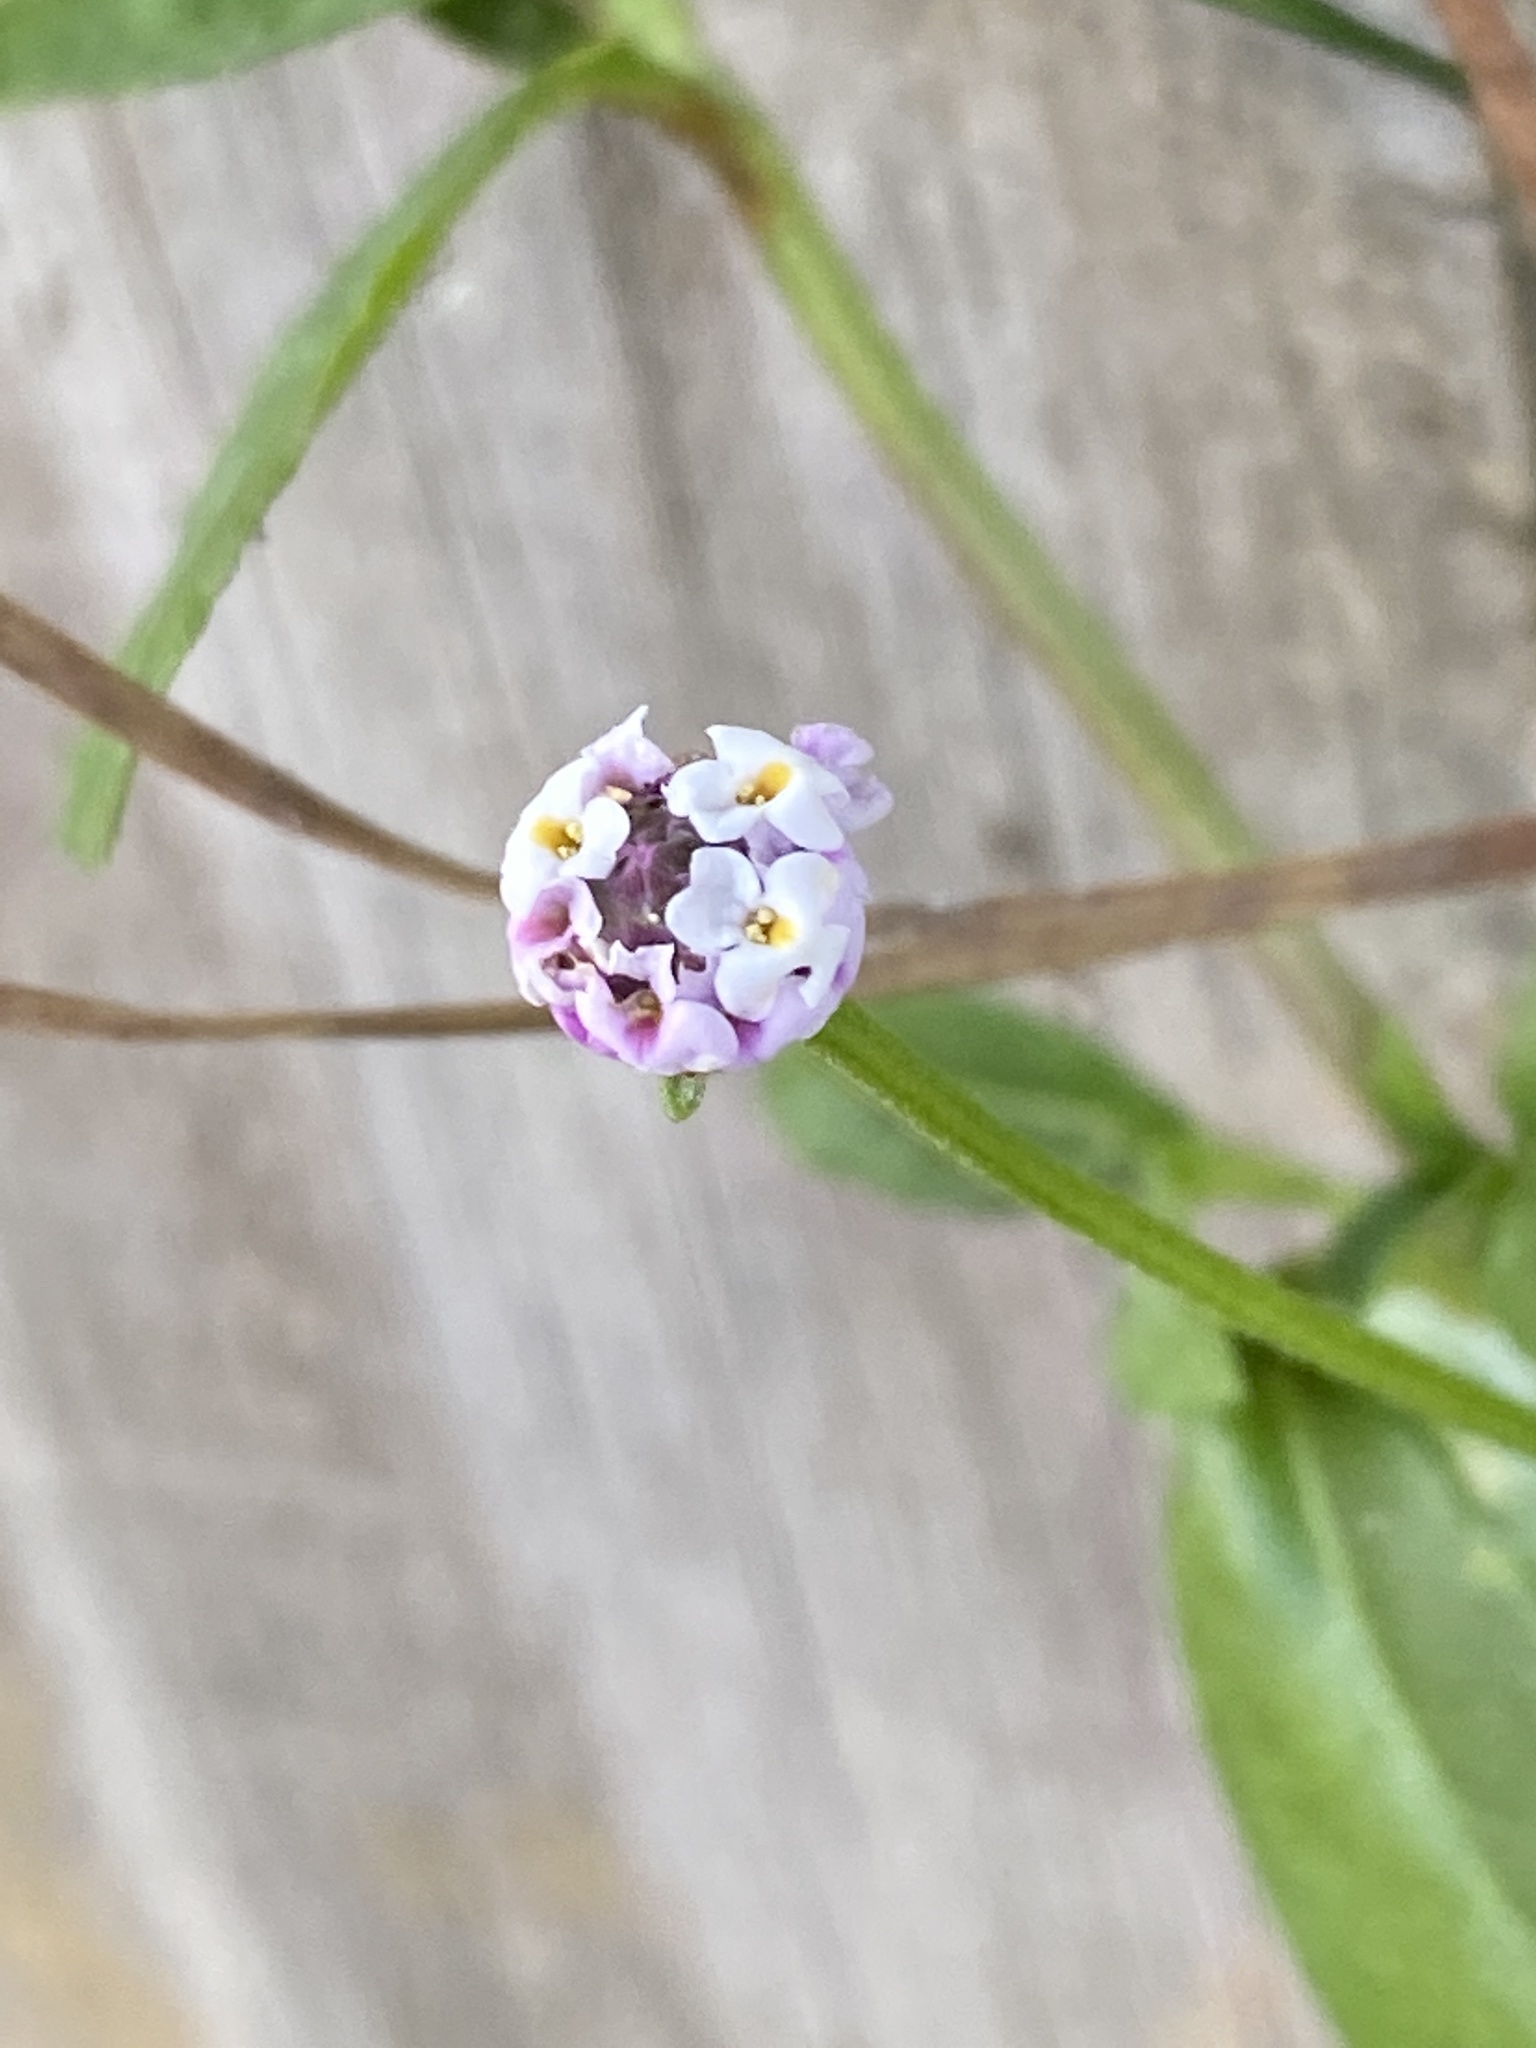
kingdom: Plantae
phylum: Tracheophyta
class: Magnoliopsida
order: Lamiales
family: Verbenaceae
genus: Phyla
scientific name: Phyla nodiflora
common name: Frogfruit
